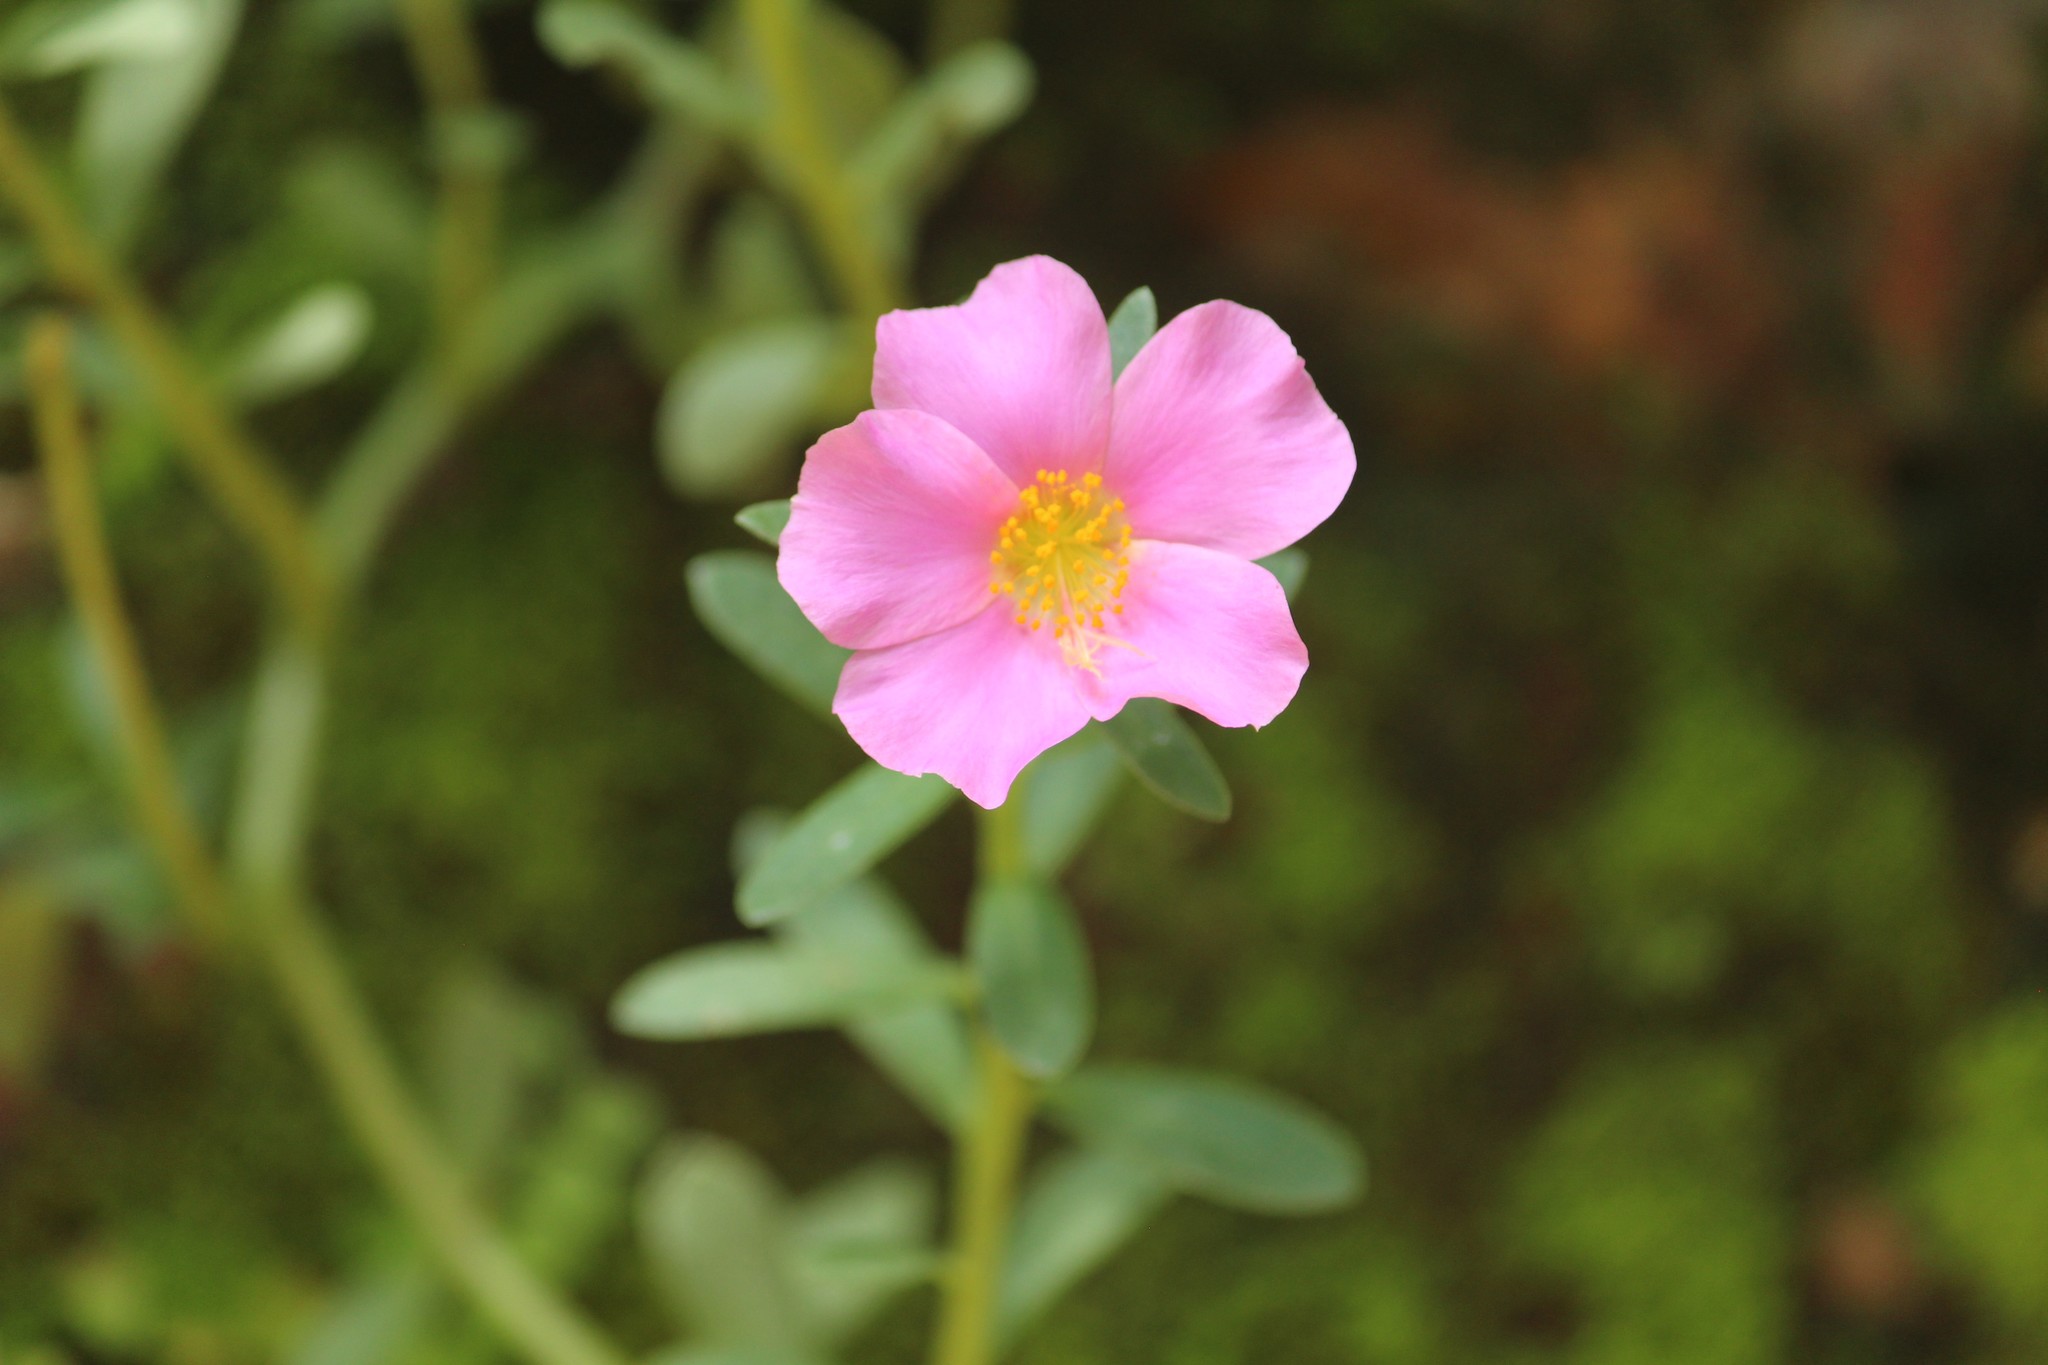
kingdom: Plantae
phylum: Tracheophyta
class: Magnoliopsida
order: Caryophyllales
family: Portulacaceae
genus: Portulaca
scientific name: Portulaca umbraticola
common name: Wingpod purslane
